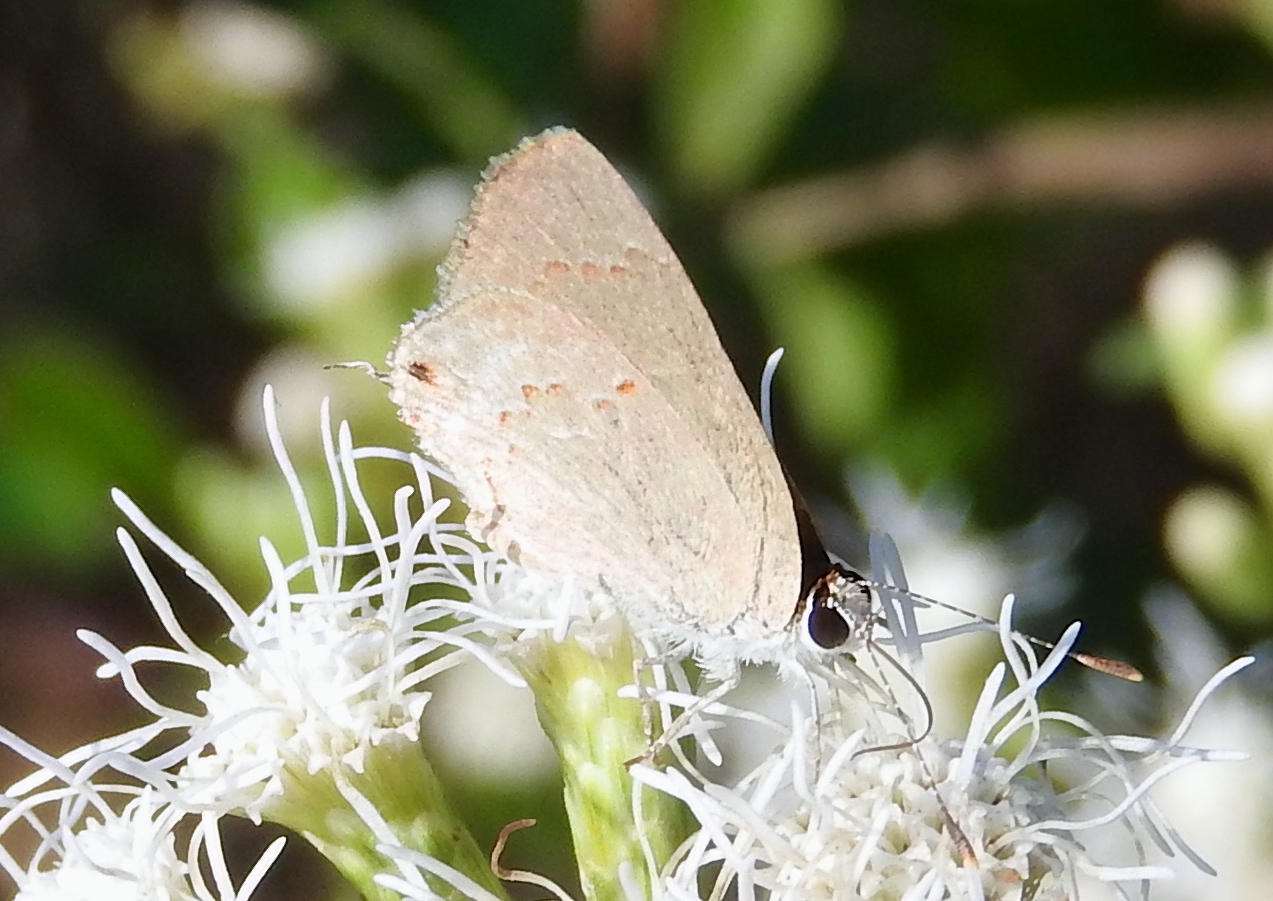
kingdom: Animalia
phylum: Arthropoda
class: Insecta
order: Lepidoptera
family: Lycaenidae
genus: Thecla
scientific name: Thecla rufofusca
